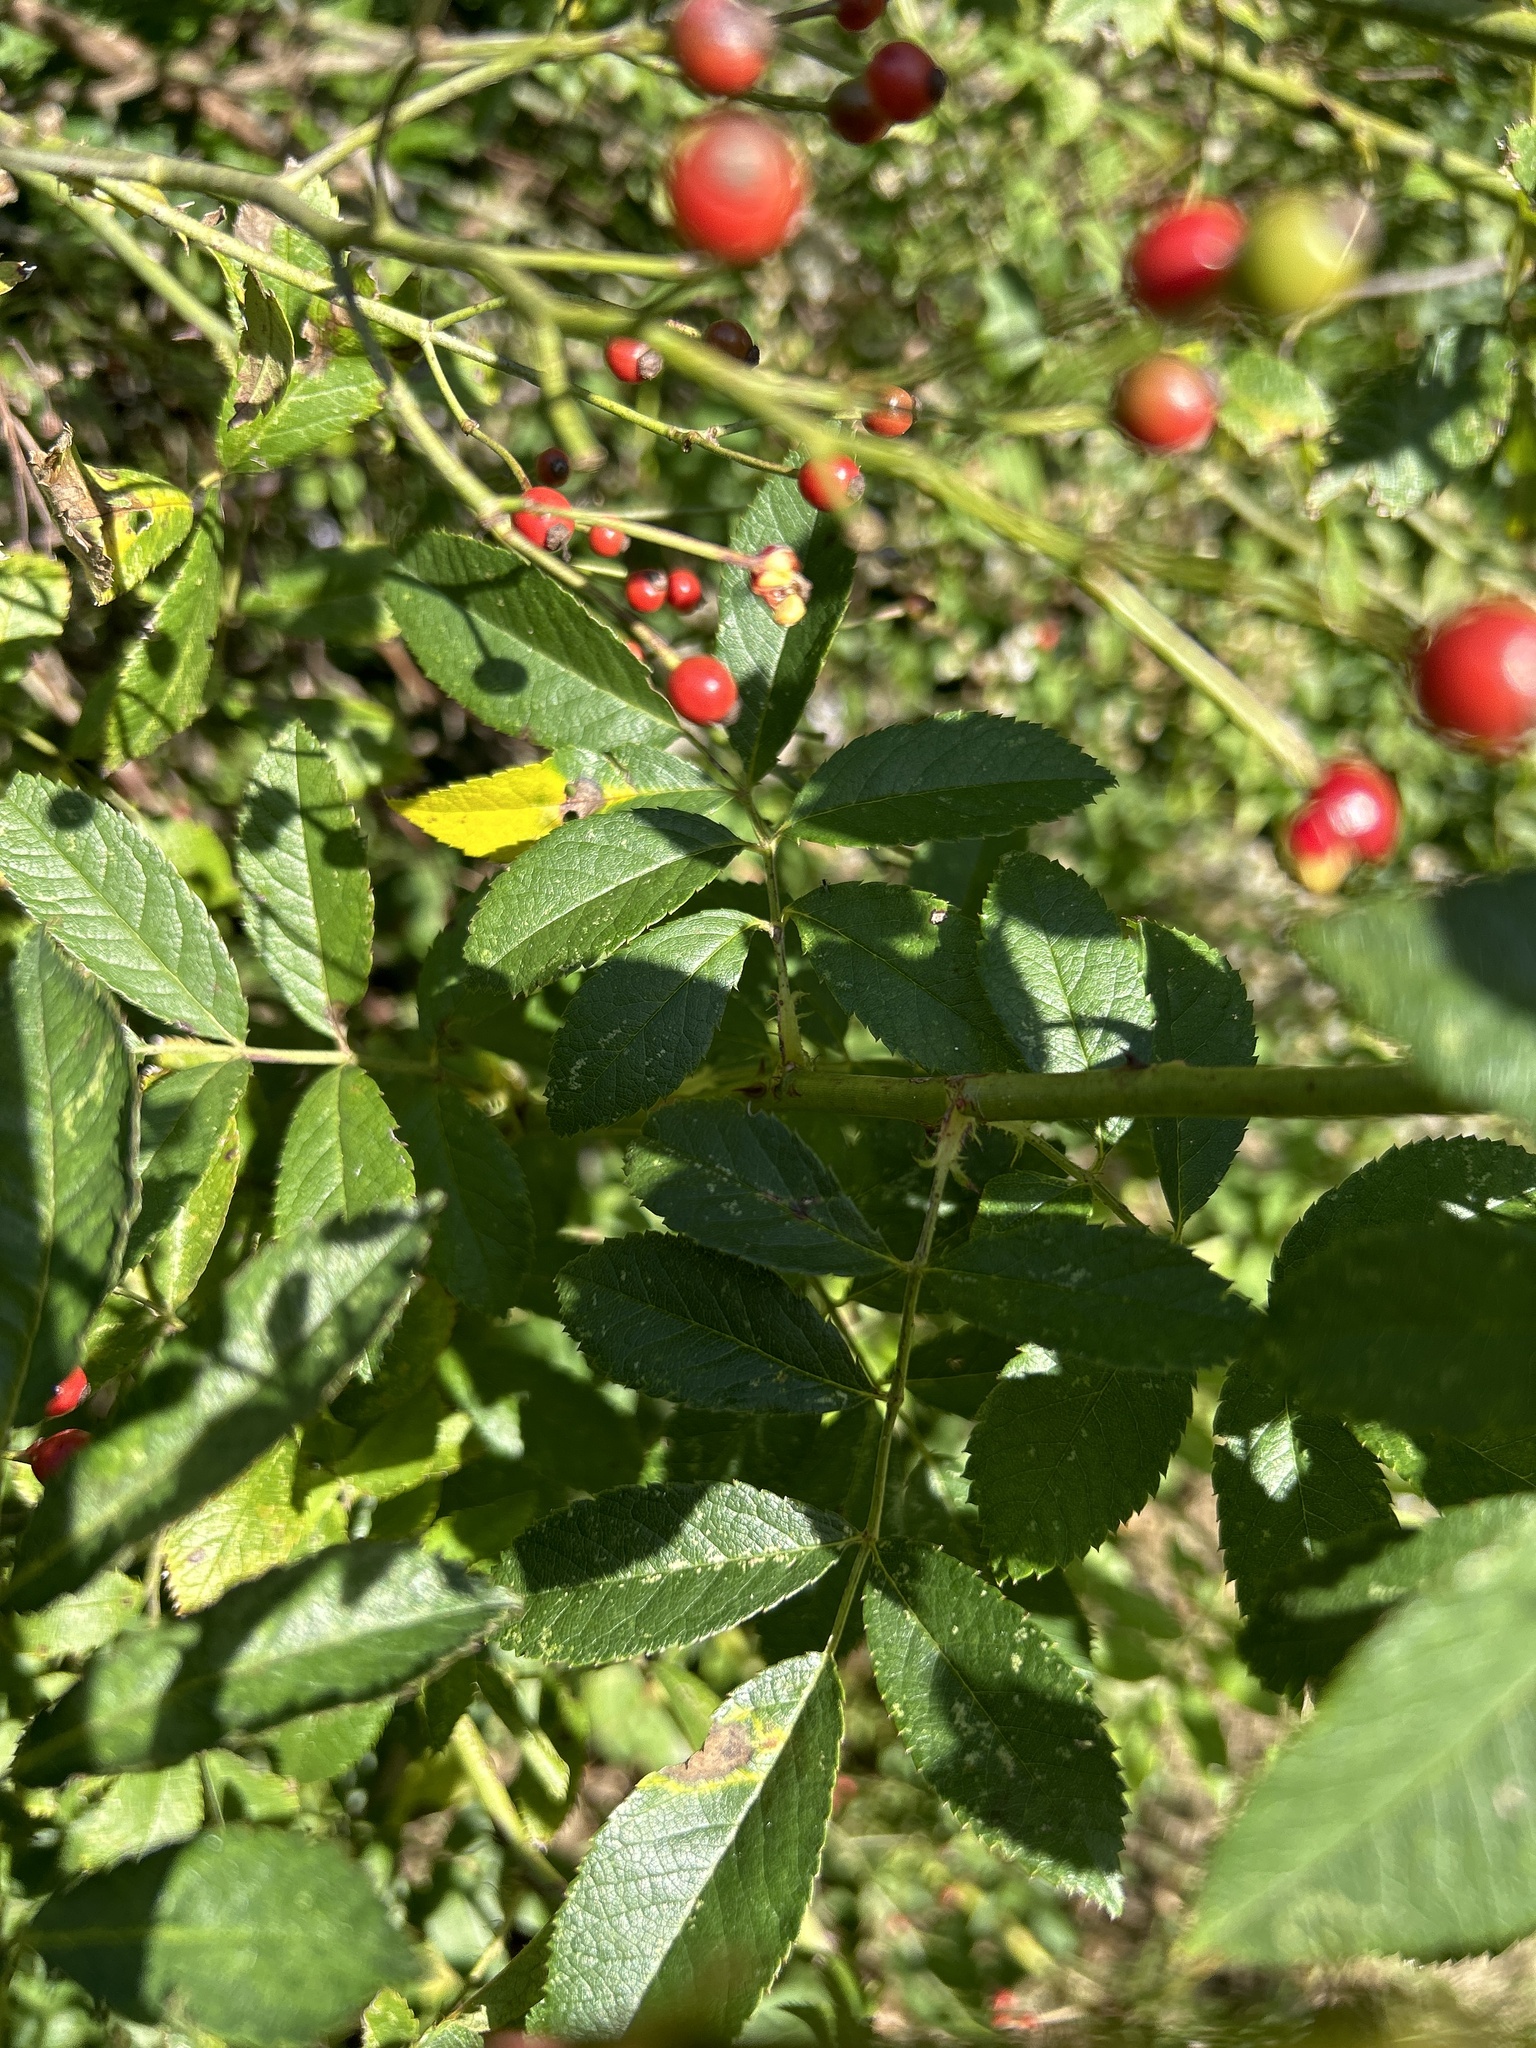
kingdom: Plantae
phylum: Tracheophyta
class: Magnoliopsida
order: Rosales
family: Rosaceae
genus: Rosa
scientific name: Rosa multiflora
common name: Multiflora rose
